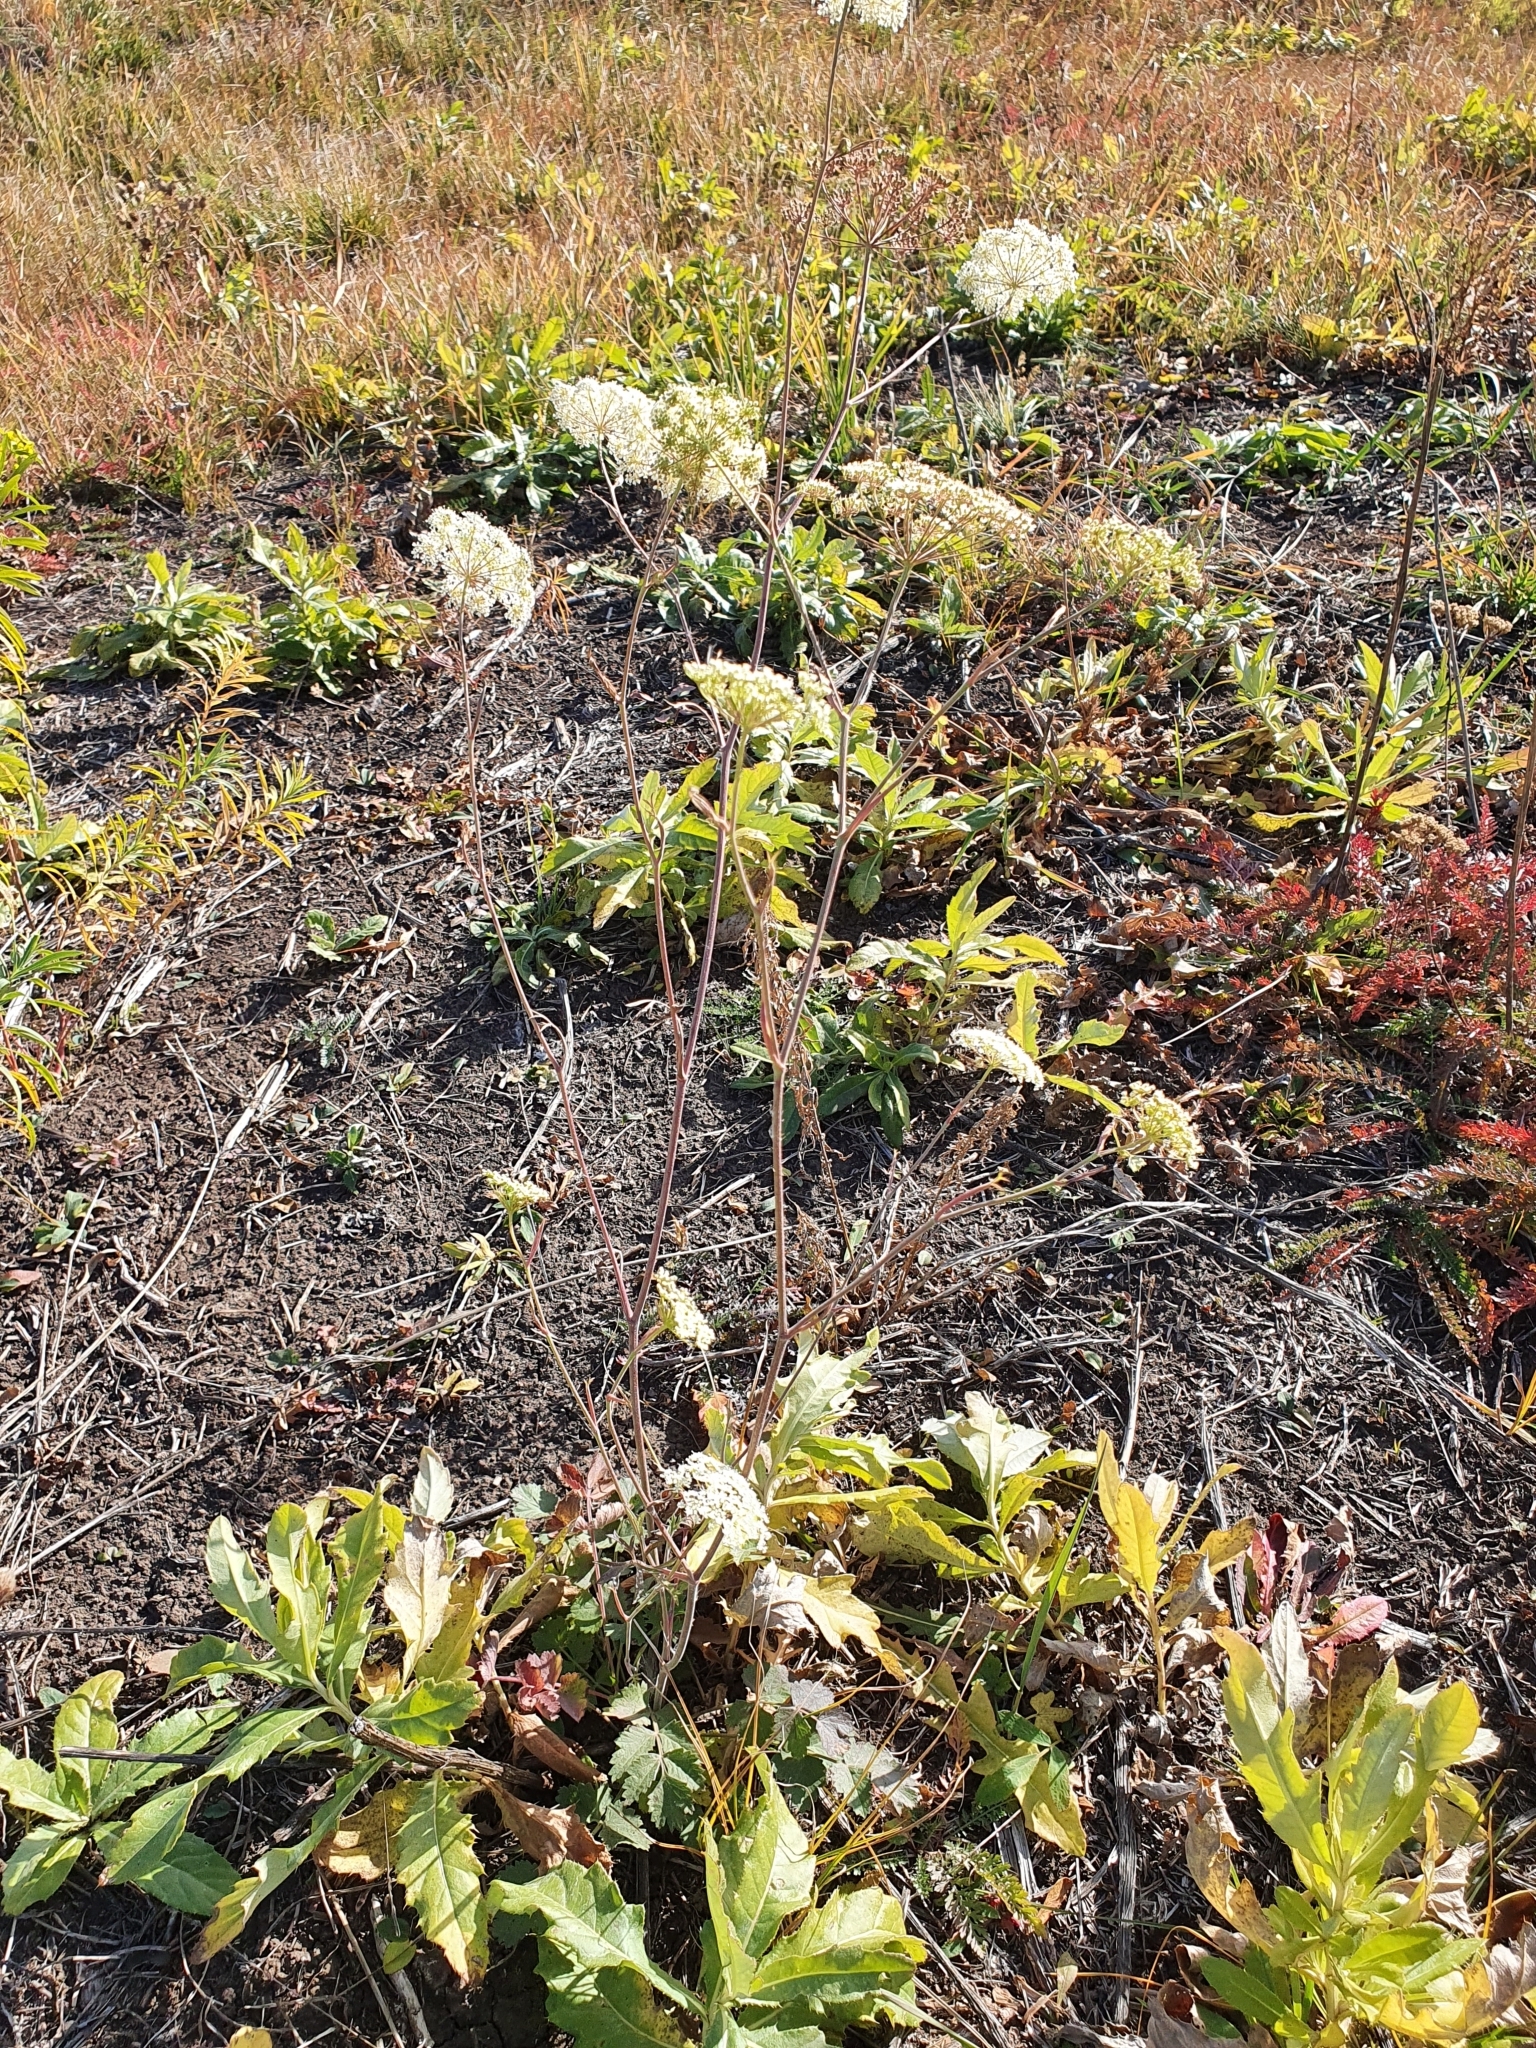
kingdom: Plantae
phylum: Tracheophyta
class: Magnoliopsida
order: Apiales
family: Apiaceae
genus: Pimpinella
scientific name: Pimpinella saxifraga
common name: Burnet-saxifrage
